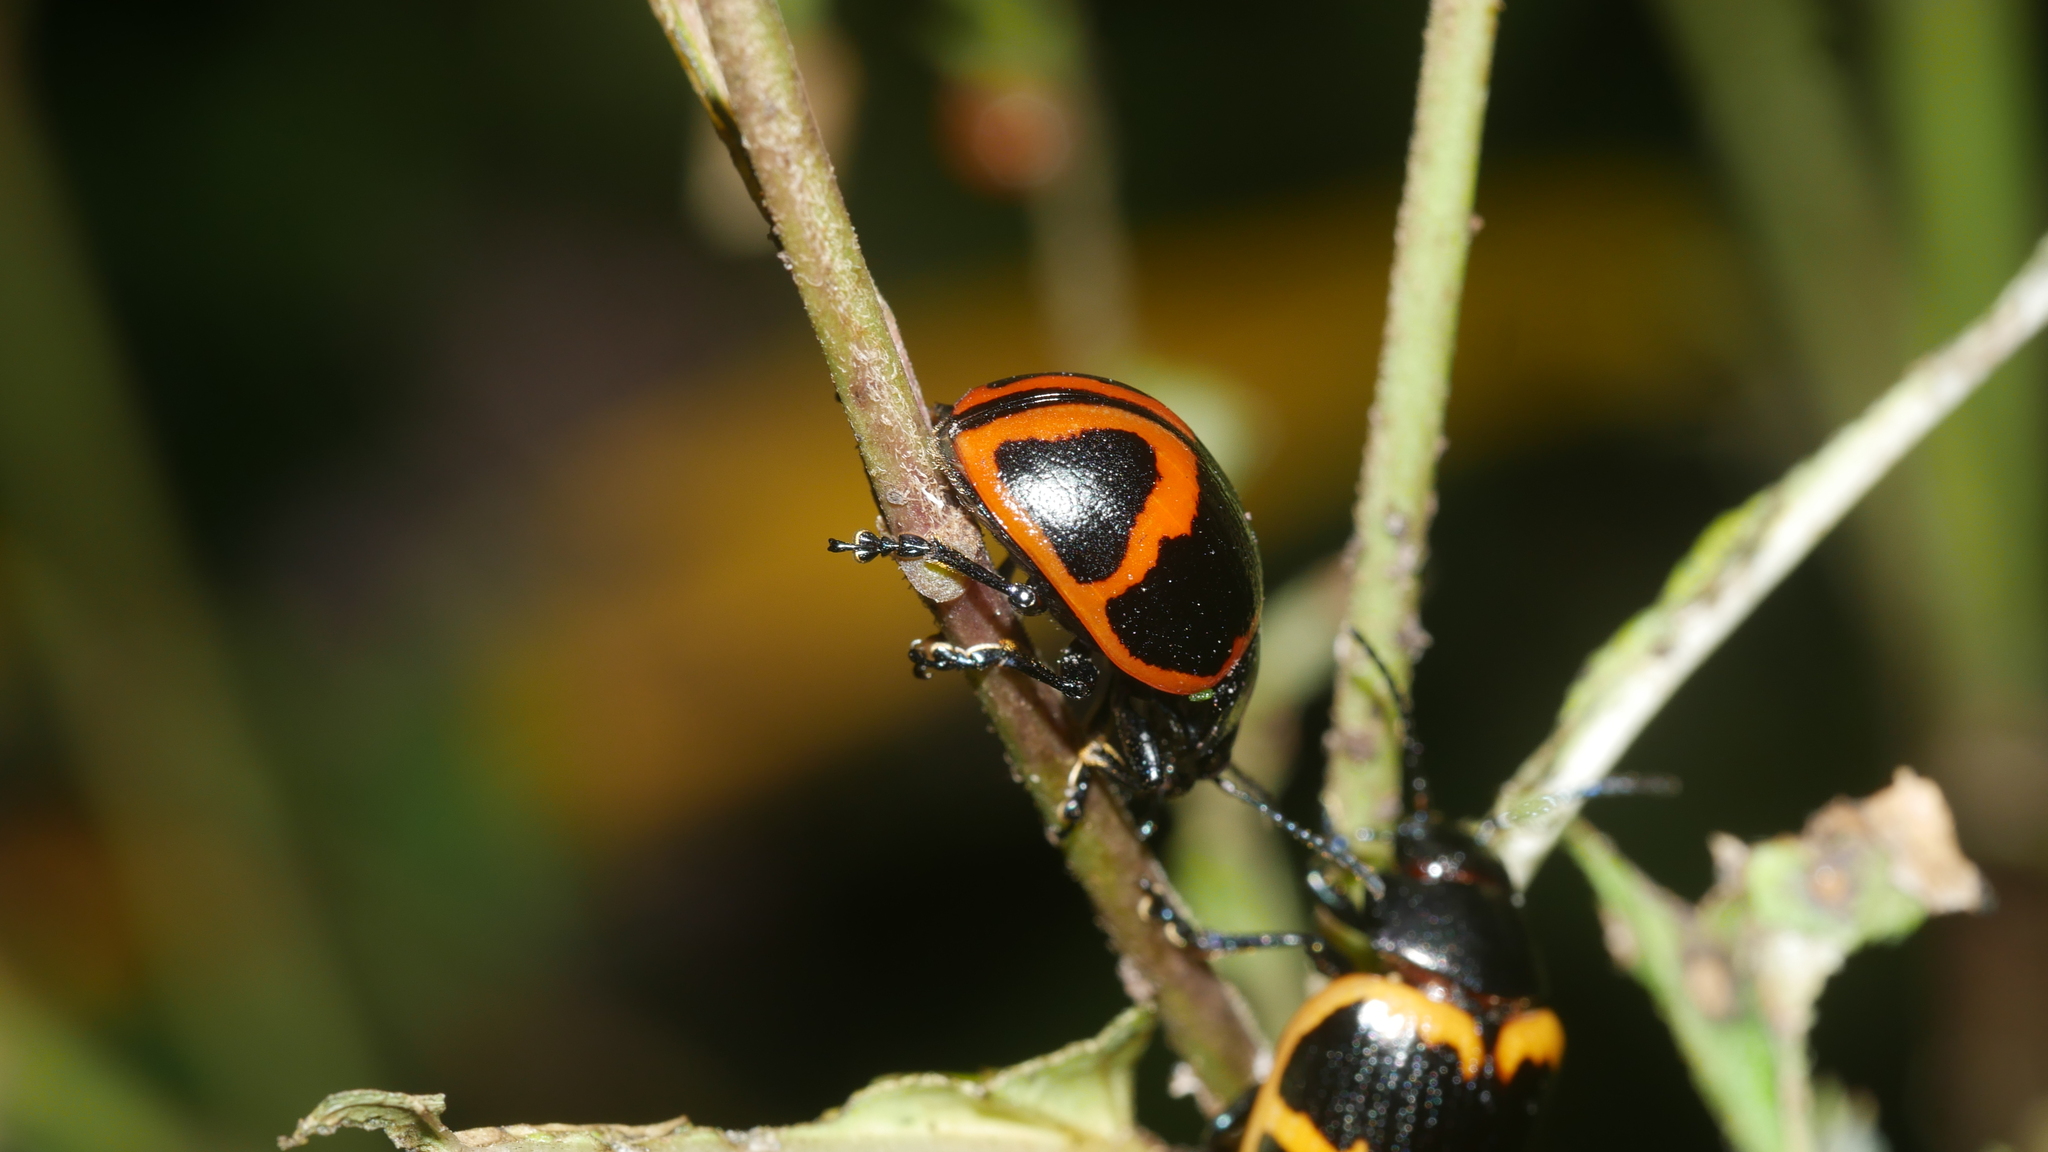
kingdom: Animalia
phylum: Arthropoda
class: Insecta
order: Coleoptera
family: Chrysomelidae
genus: Labidomera
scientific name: Labidomera clivicollis
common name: Swamp milkweed leaf beetle
